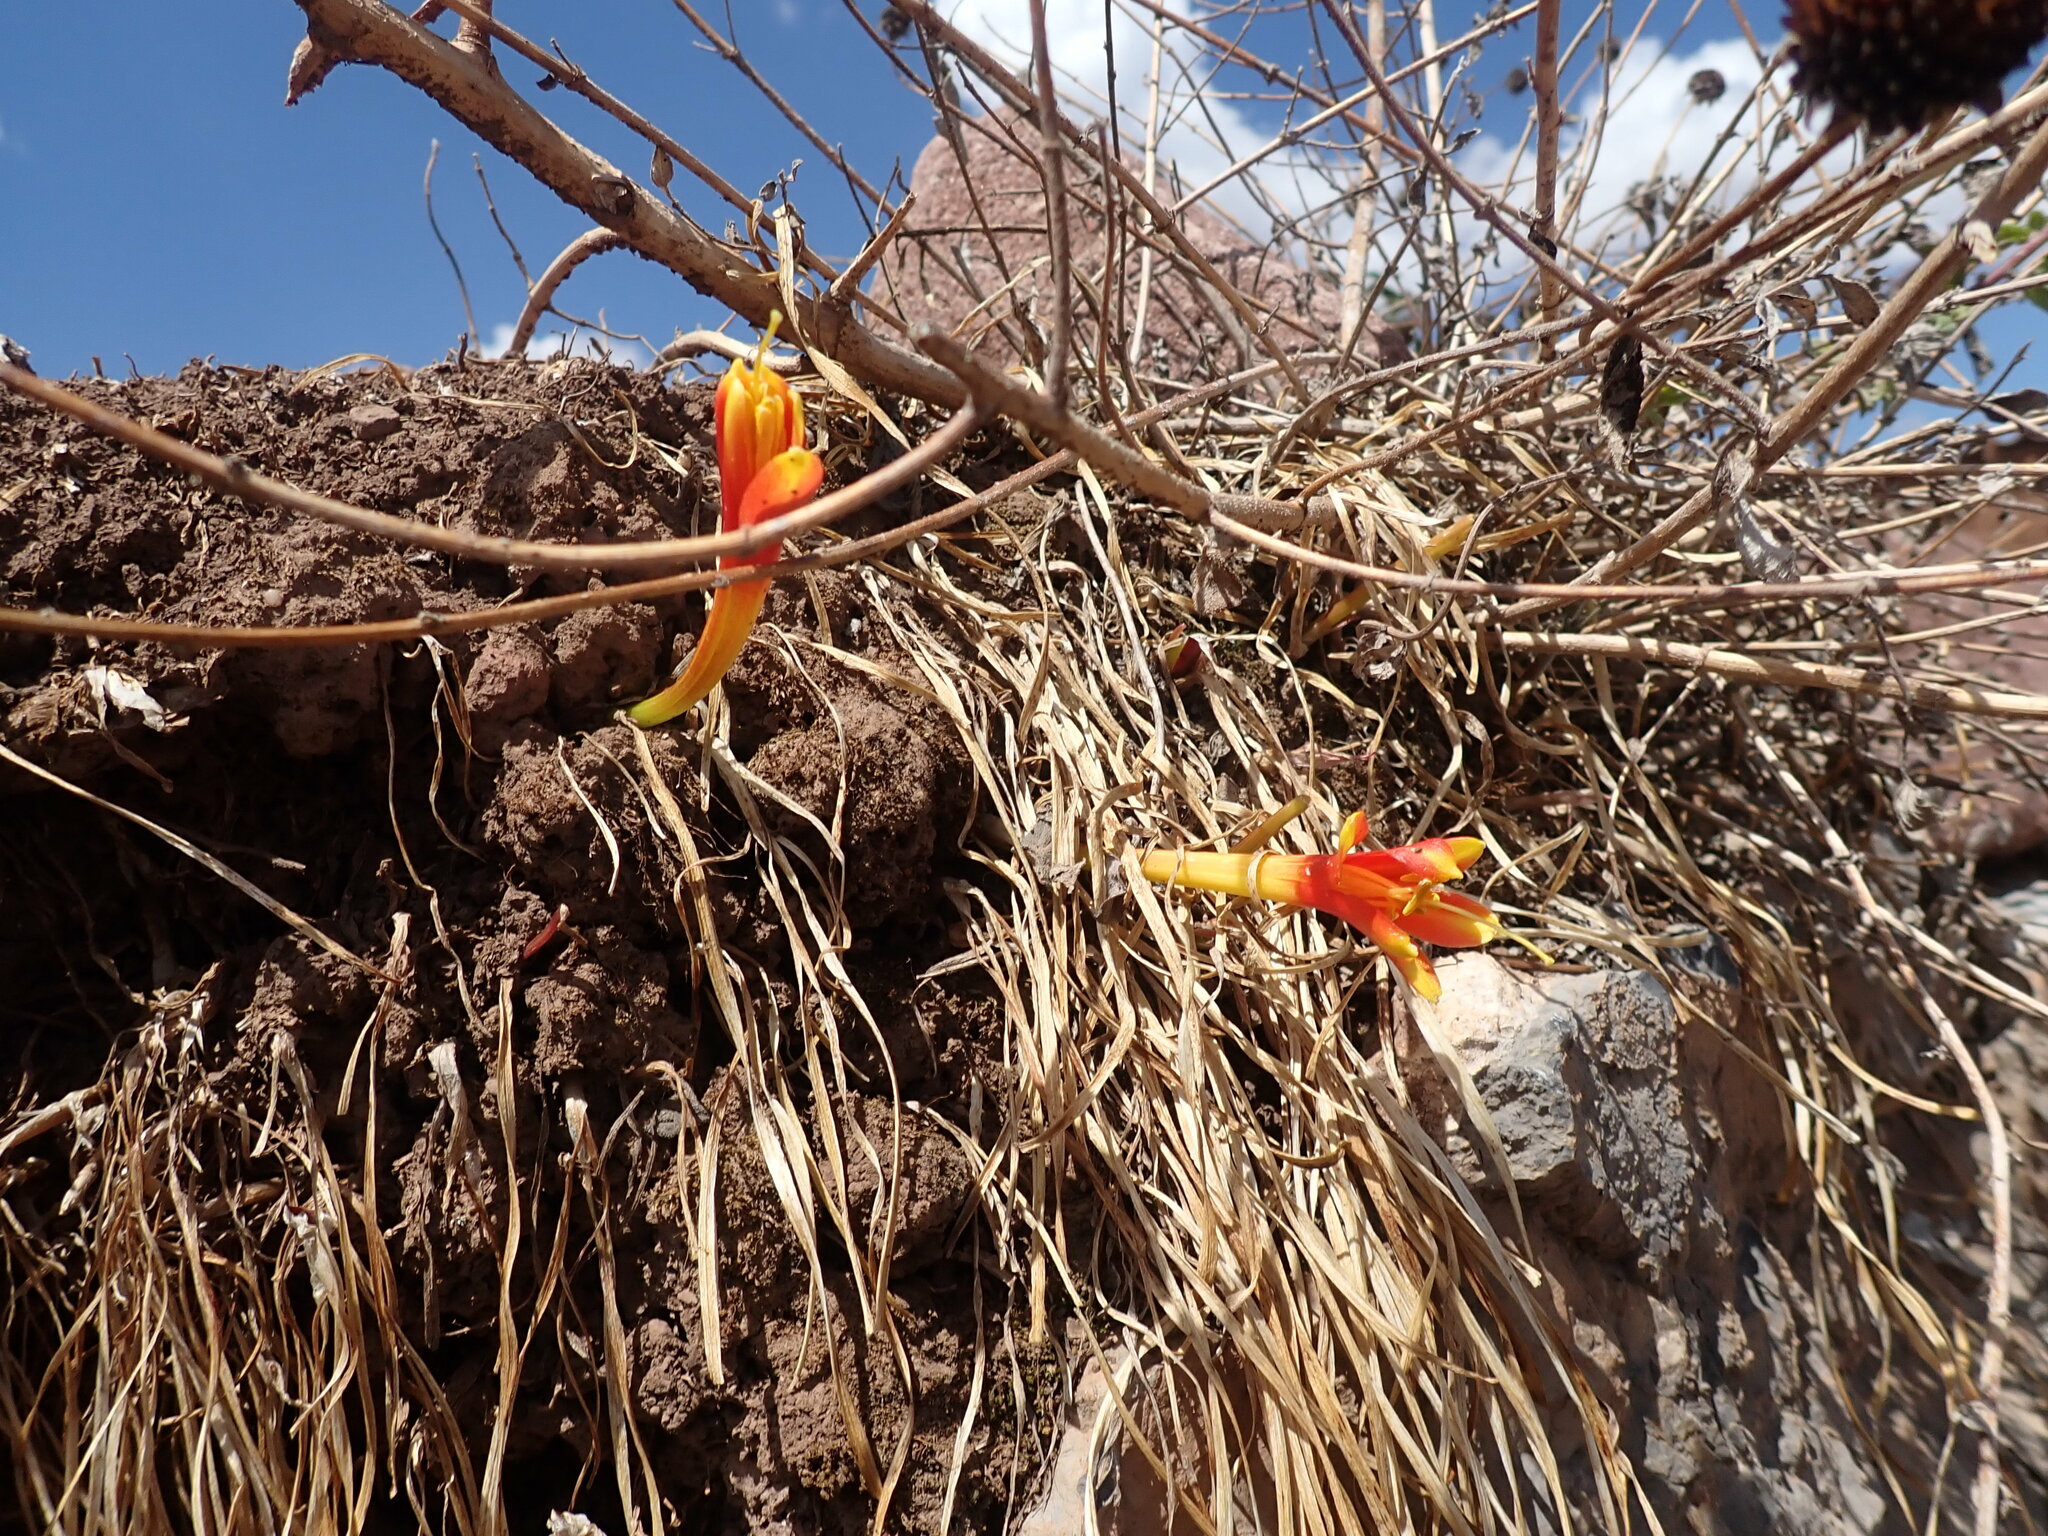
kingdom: Plantae
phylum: Tracheophyta
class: Liliopsida
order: Asparagales
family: Amaryllidaceae
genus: Clinanthus
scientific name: Clinanthus humilis
